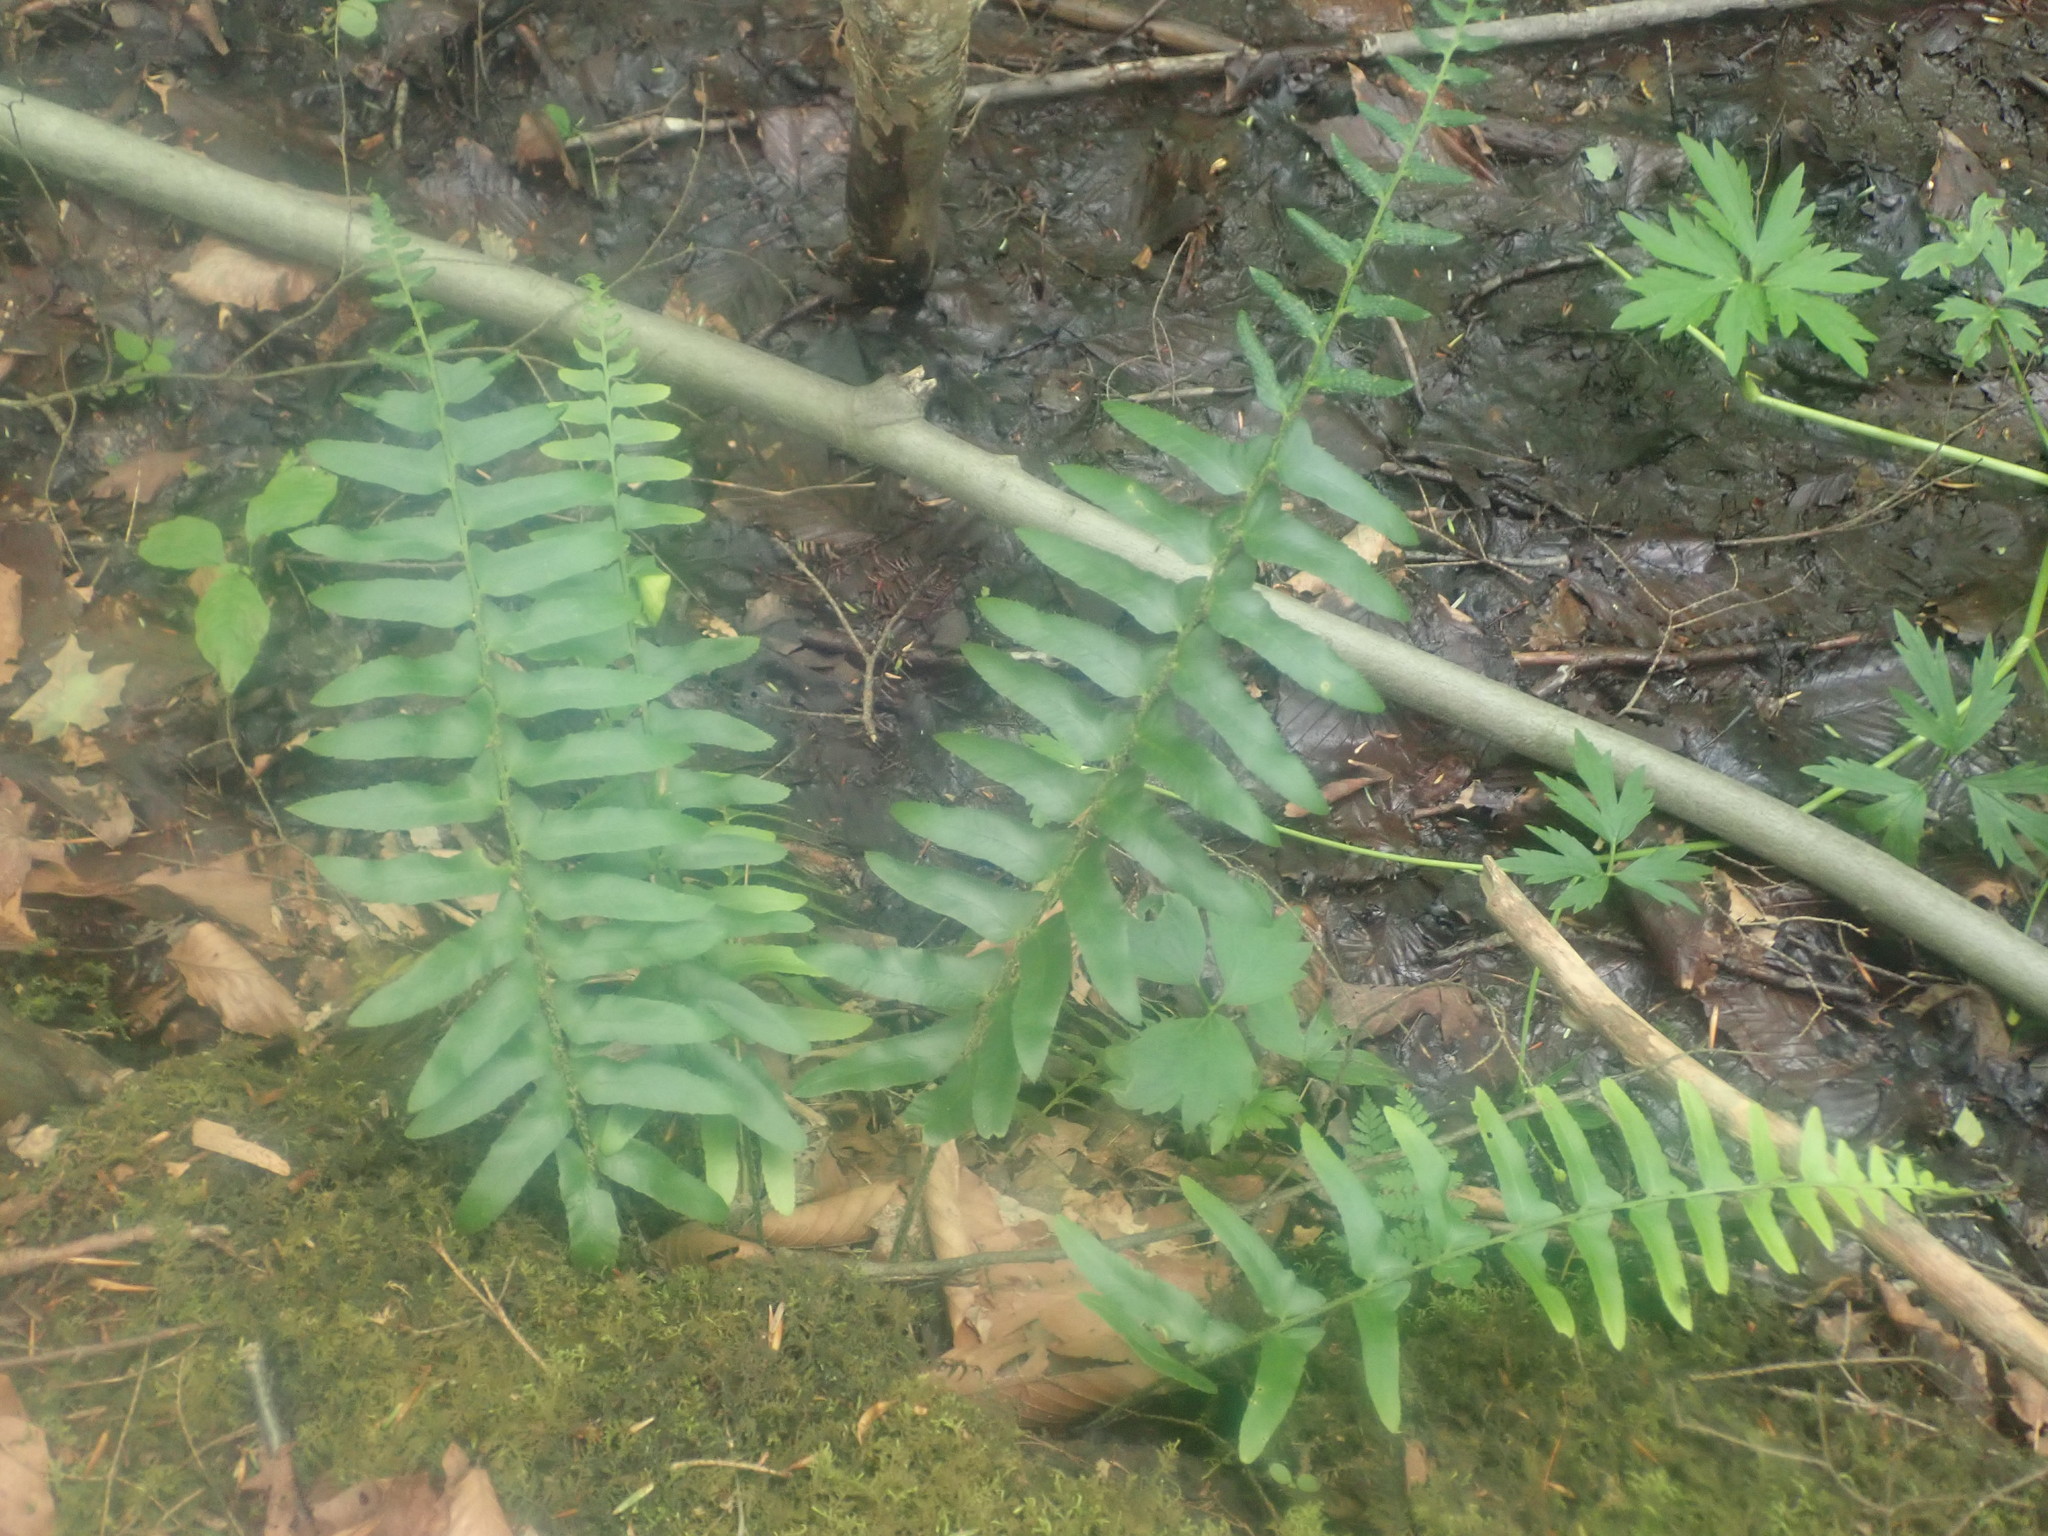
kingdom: Plantae
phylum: Tracheophyta
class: Polypodiopsida
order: Polypodiales
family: Dryopteridaceae
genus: Polystichum
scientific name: Polystichum acrostichoides
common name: Christmas fern
